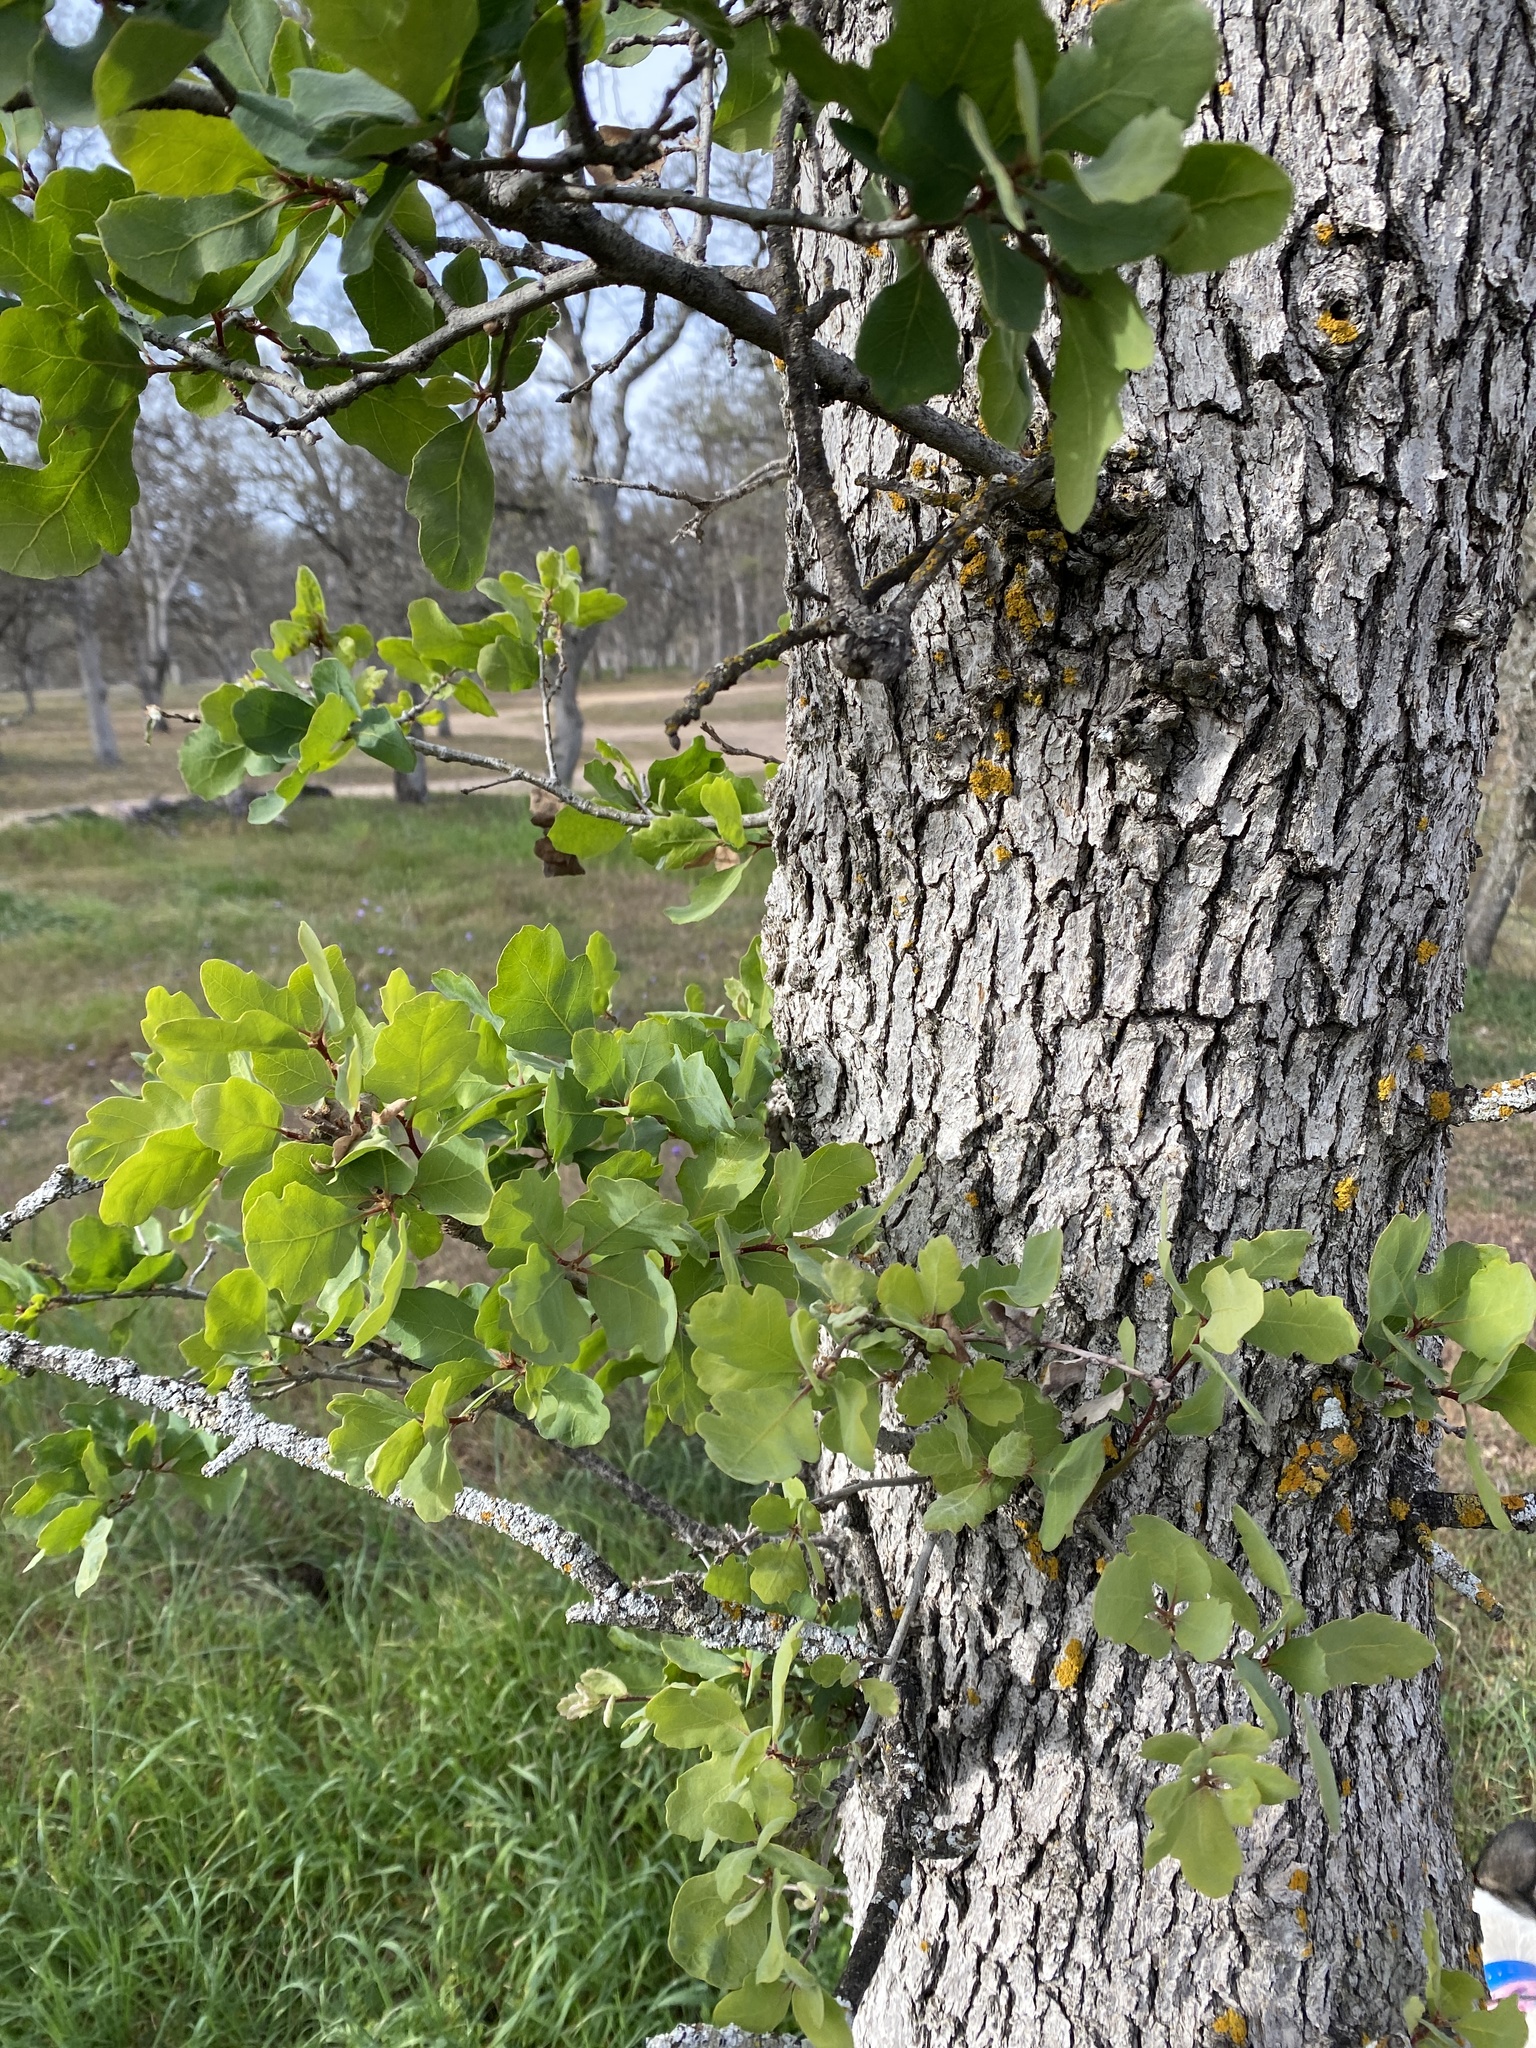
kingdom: Plantae
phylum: Tracheophyta
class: Magnoliopsida
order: Fagales
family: Fagaceae
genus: Quercus
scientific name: Quercus douglasii
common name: Blue oak
